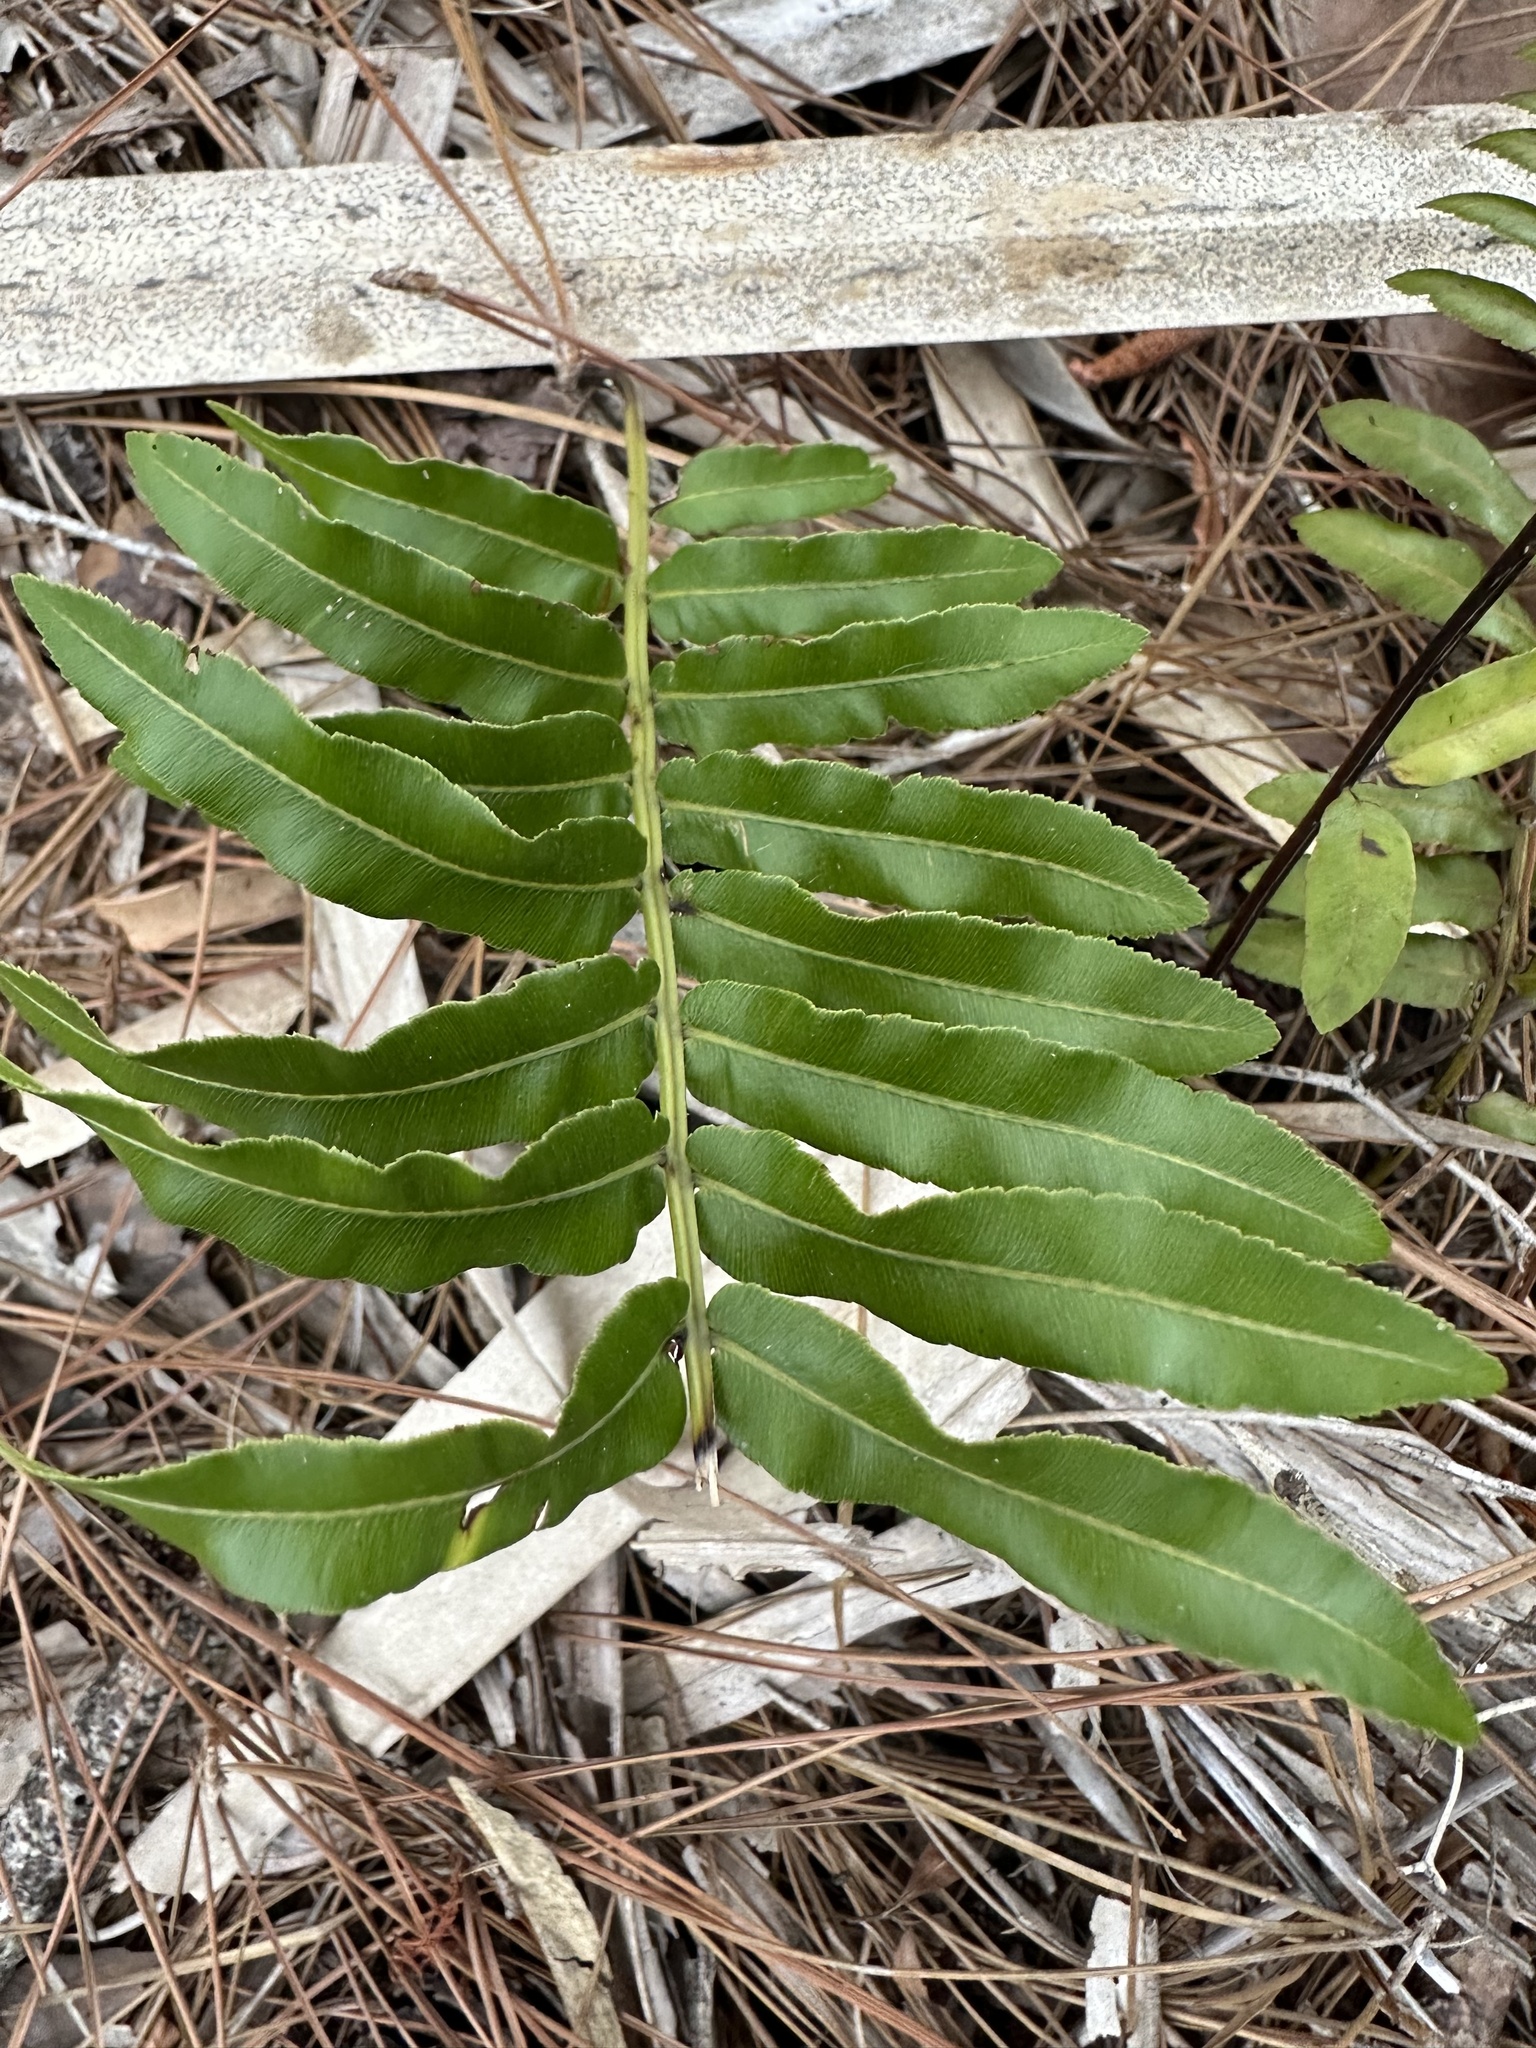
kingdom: Plantae
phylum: Tracheophyta
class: Polypodiopsida
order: Polypodiales
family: Blechnaceae
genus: Telmatoblechnum
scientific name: Telmatoblechnum serrulatum
